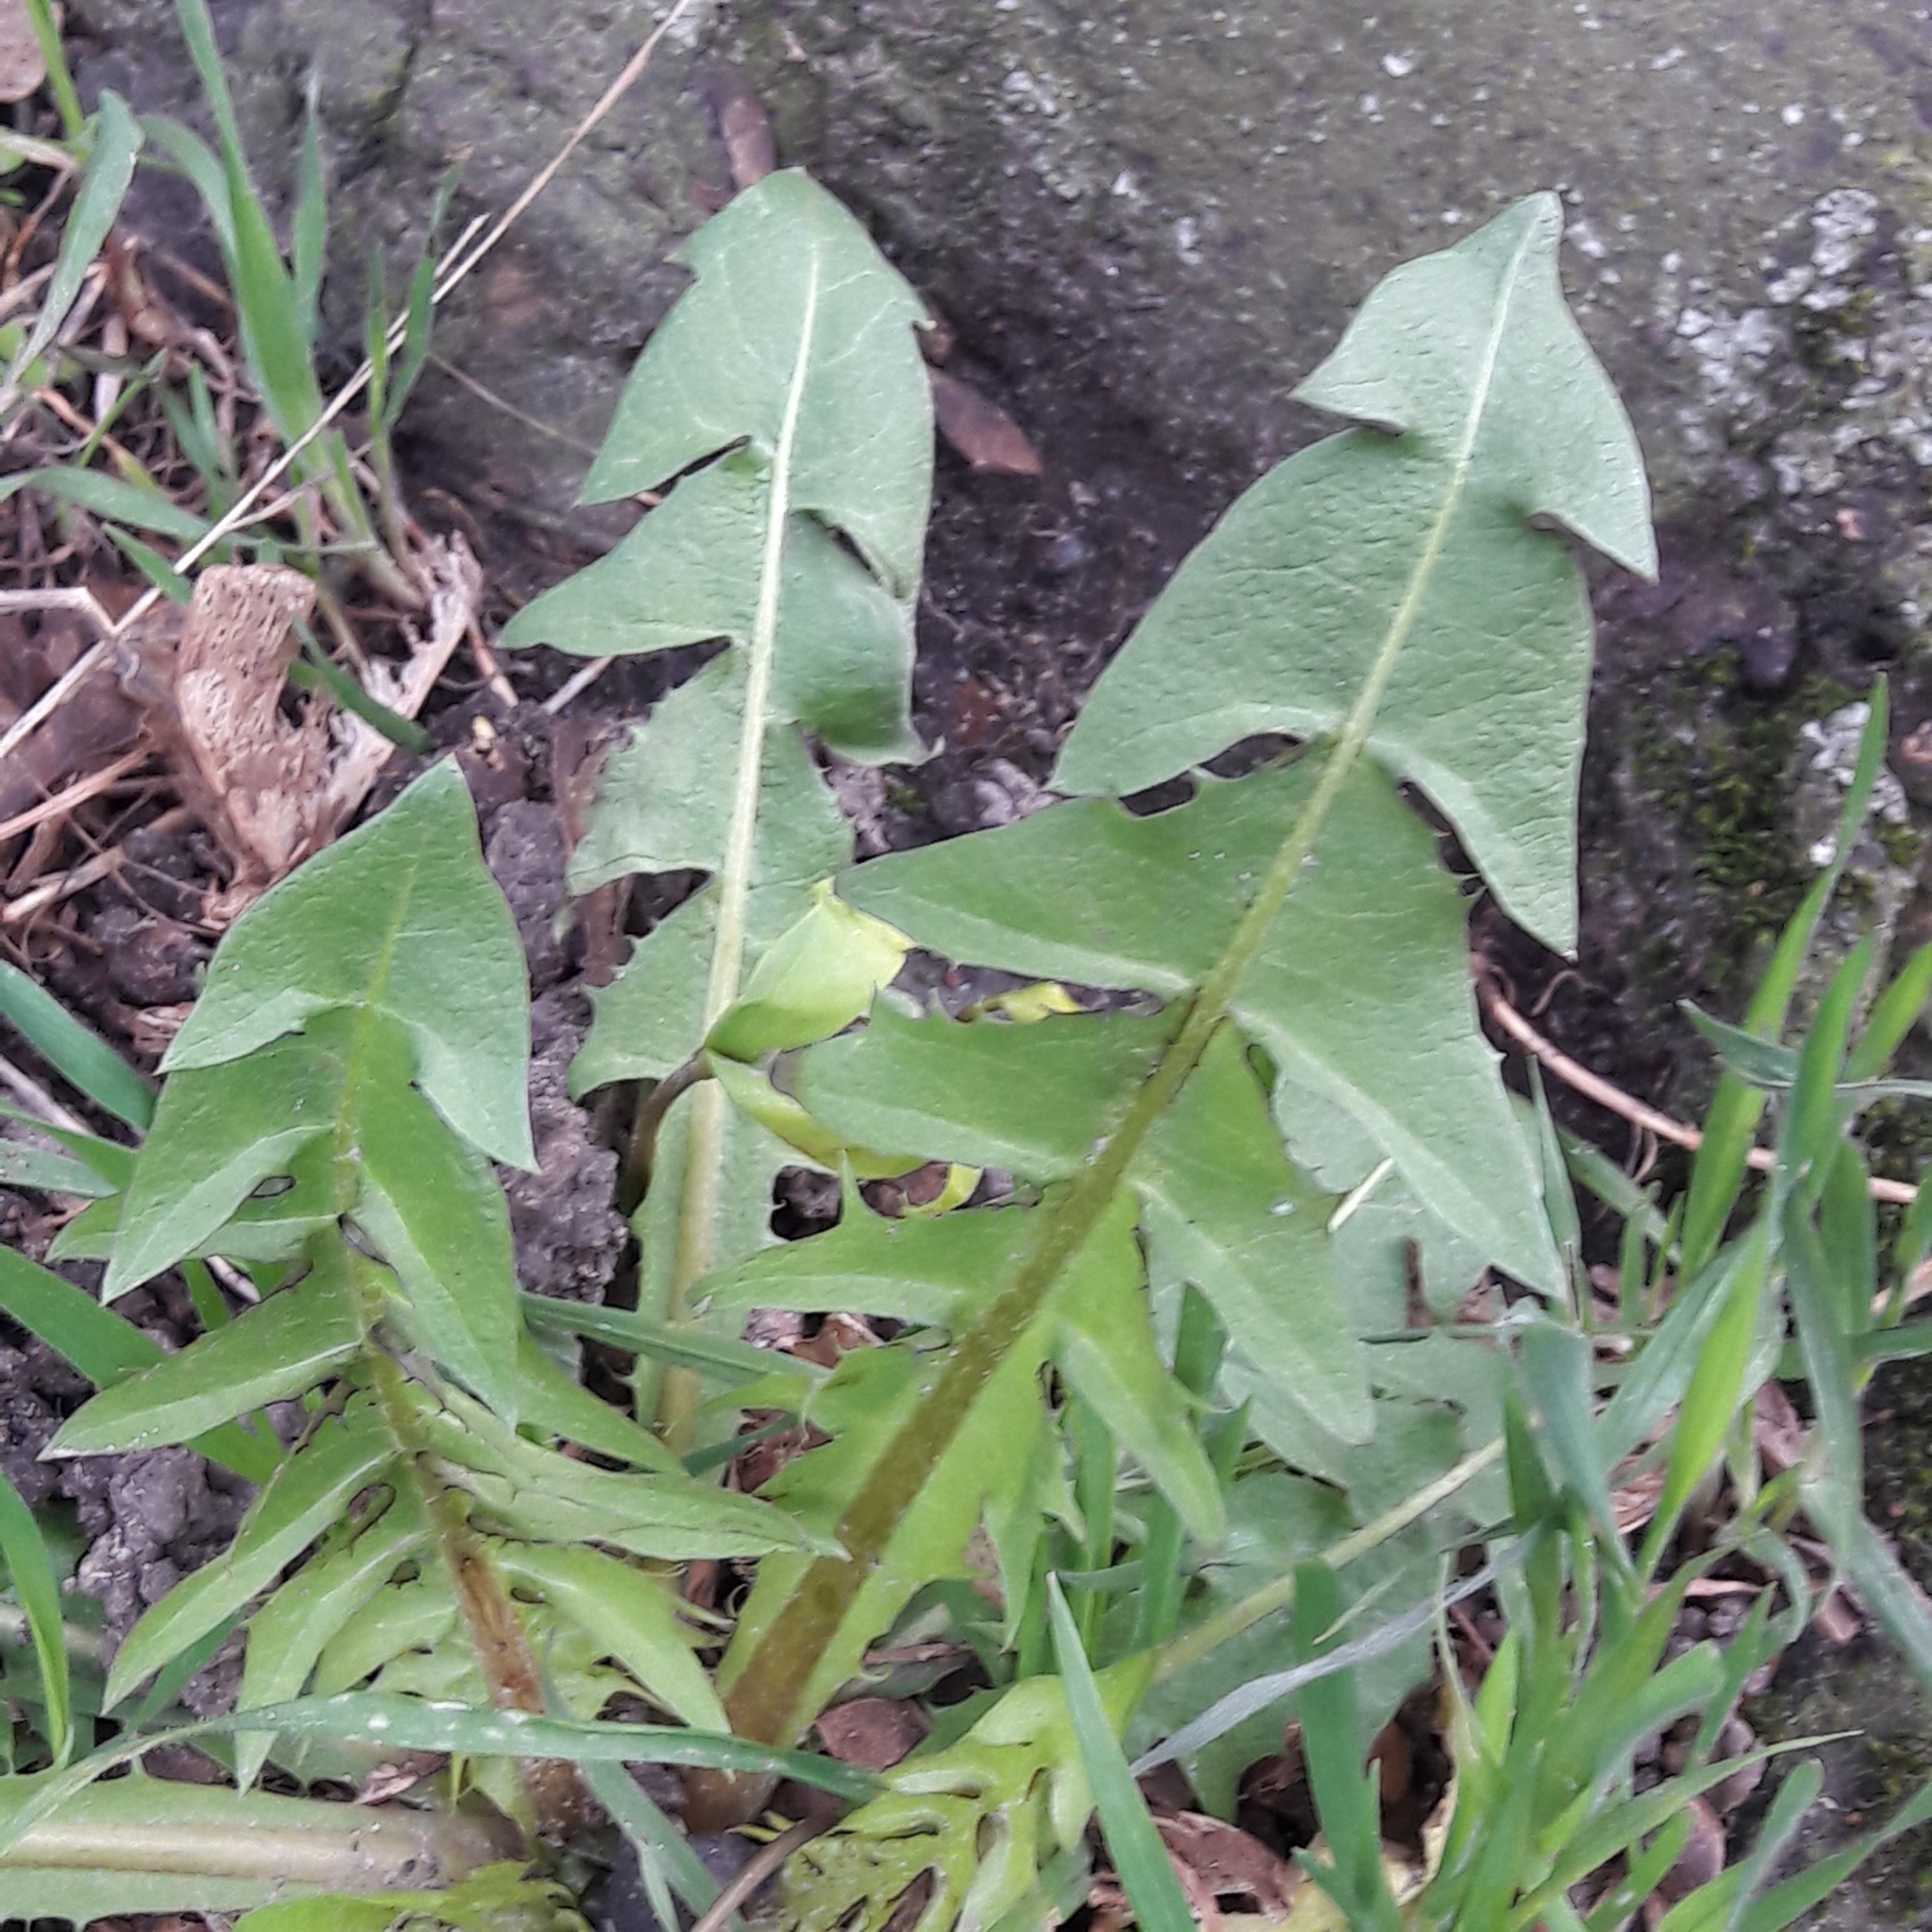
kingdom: Plantae
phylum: Tracheophyta
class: Magnoliopsida
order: Asterales
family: Asteraceae
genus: Taraxacum
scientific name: Taraxacum officinale
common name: Common dandelion
